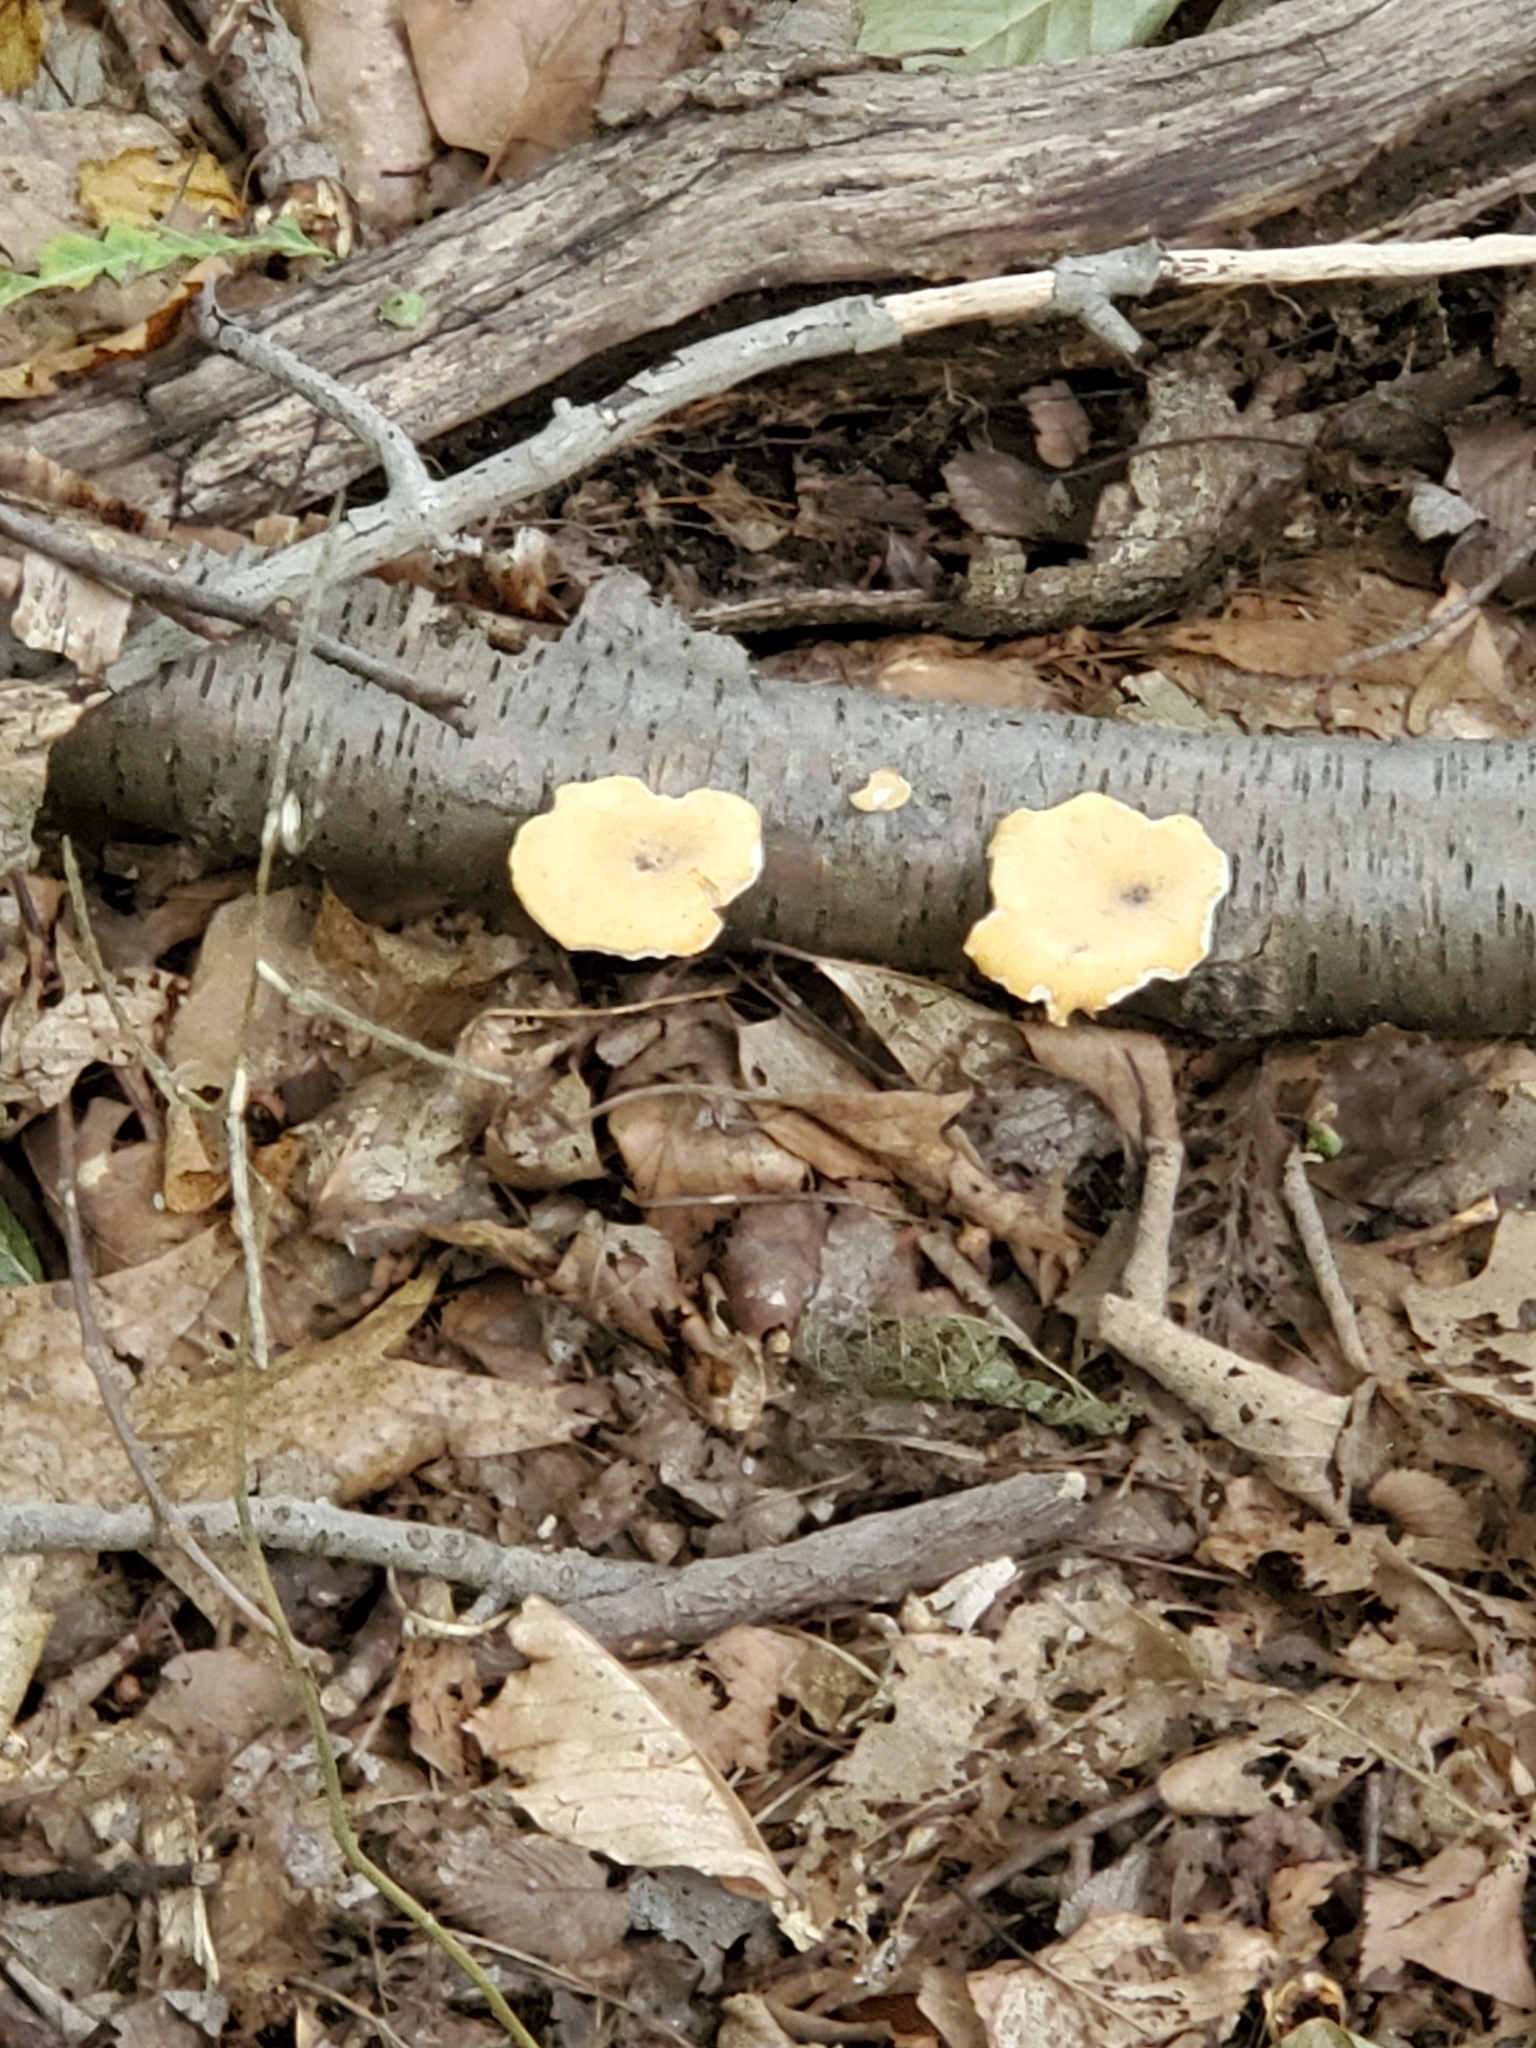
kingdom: Fungi
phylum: Basidiomycota
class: Agaricomycetes
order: Polyporales
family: Polyporaceae
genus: Cerioporus
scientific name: Cerioporus varius
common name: Elegant polypore
